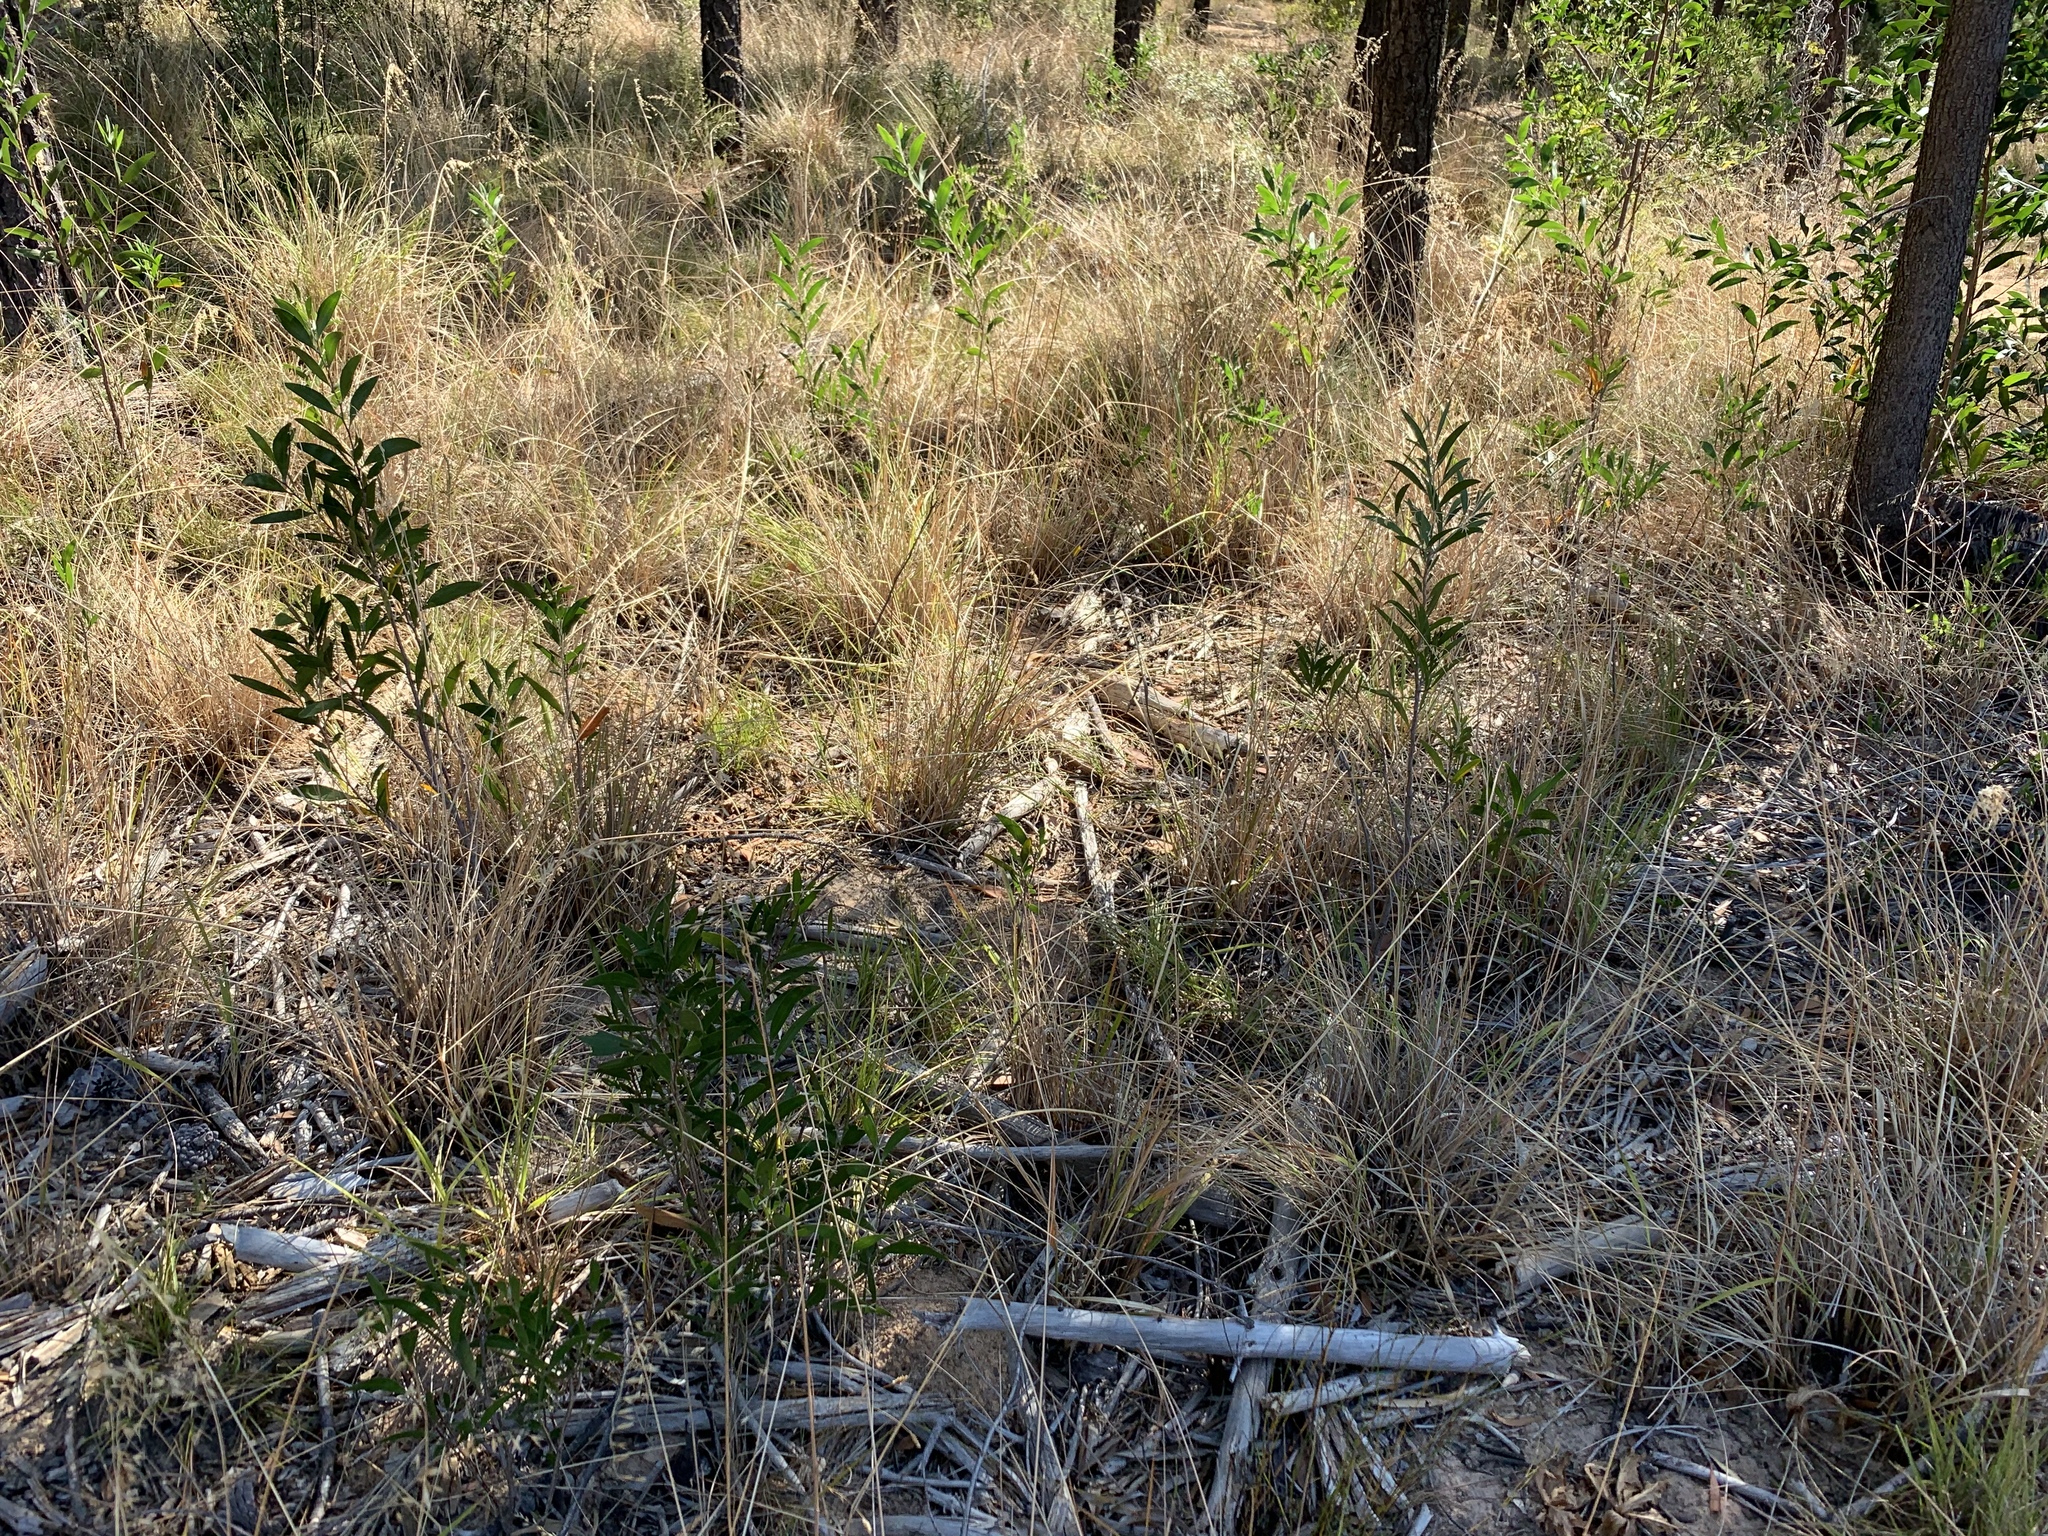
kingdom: Plantae
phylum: Tracheophyta
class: Magnoliopsida
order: Fabales
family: Fabaceae
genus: Acacia
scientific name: Acacia melanoxylon
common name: Blackwood
